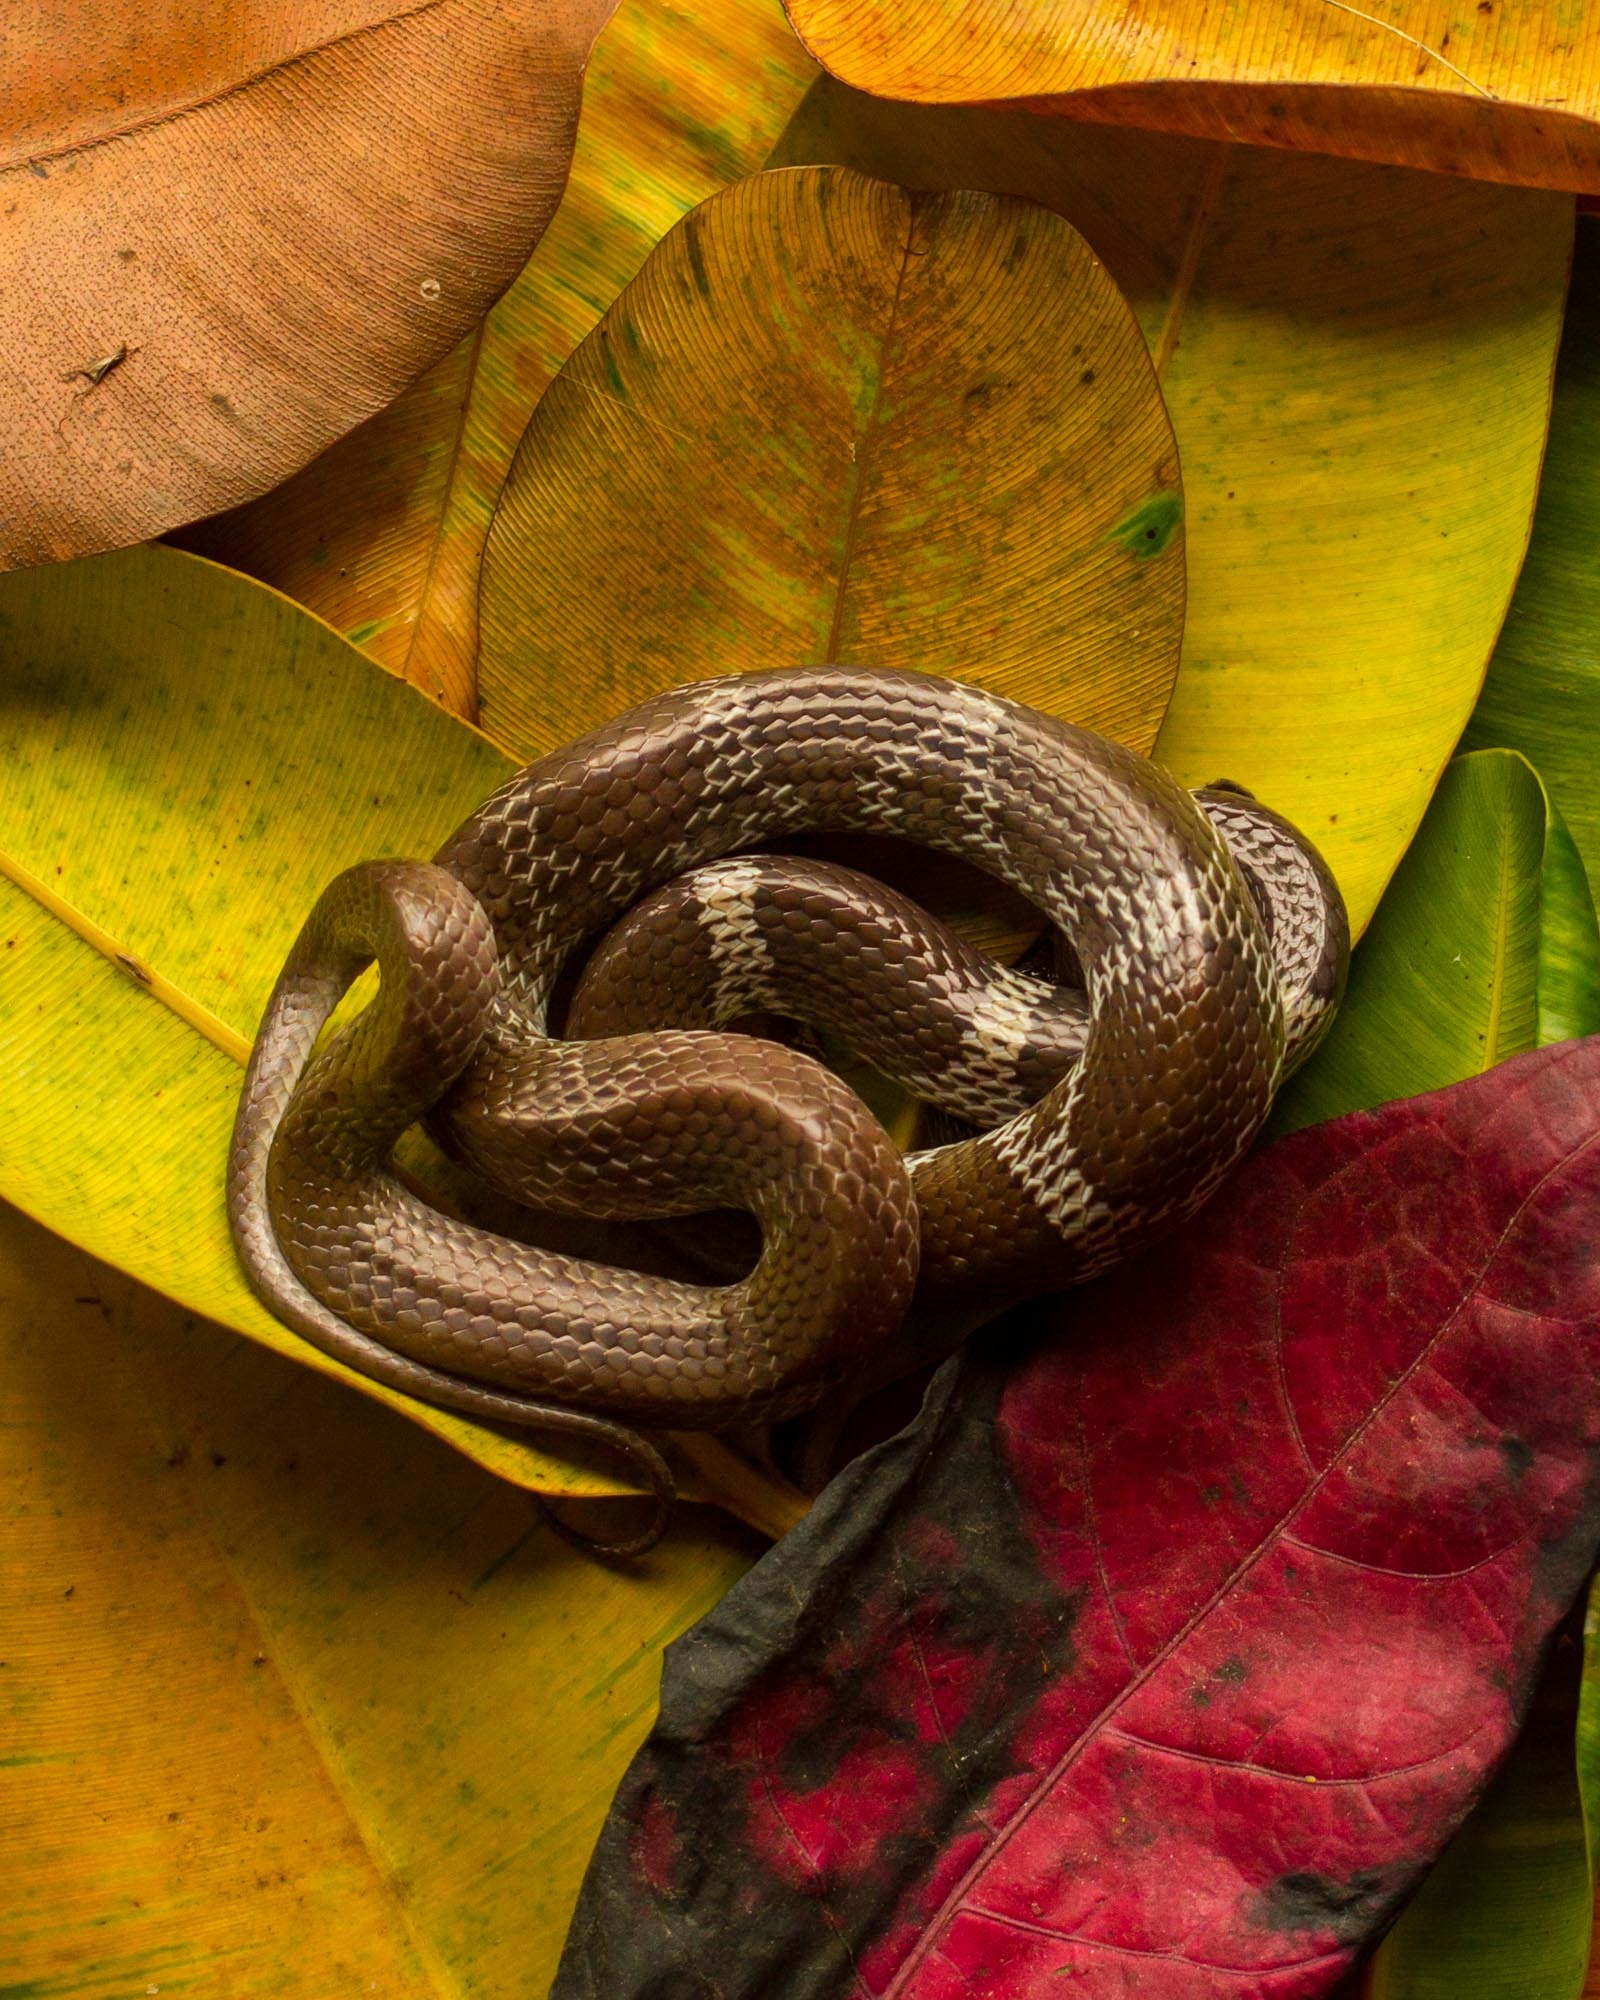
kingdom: Animalia
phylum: Chordata
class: Squamata
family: Colubridae
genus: Lycodon
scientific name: Lycodon aulicus
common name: Common wolf snake
